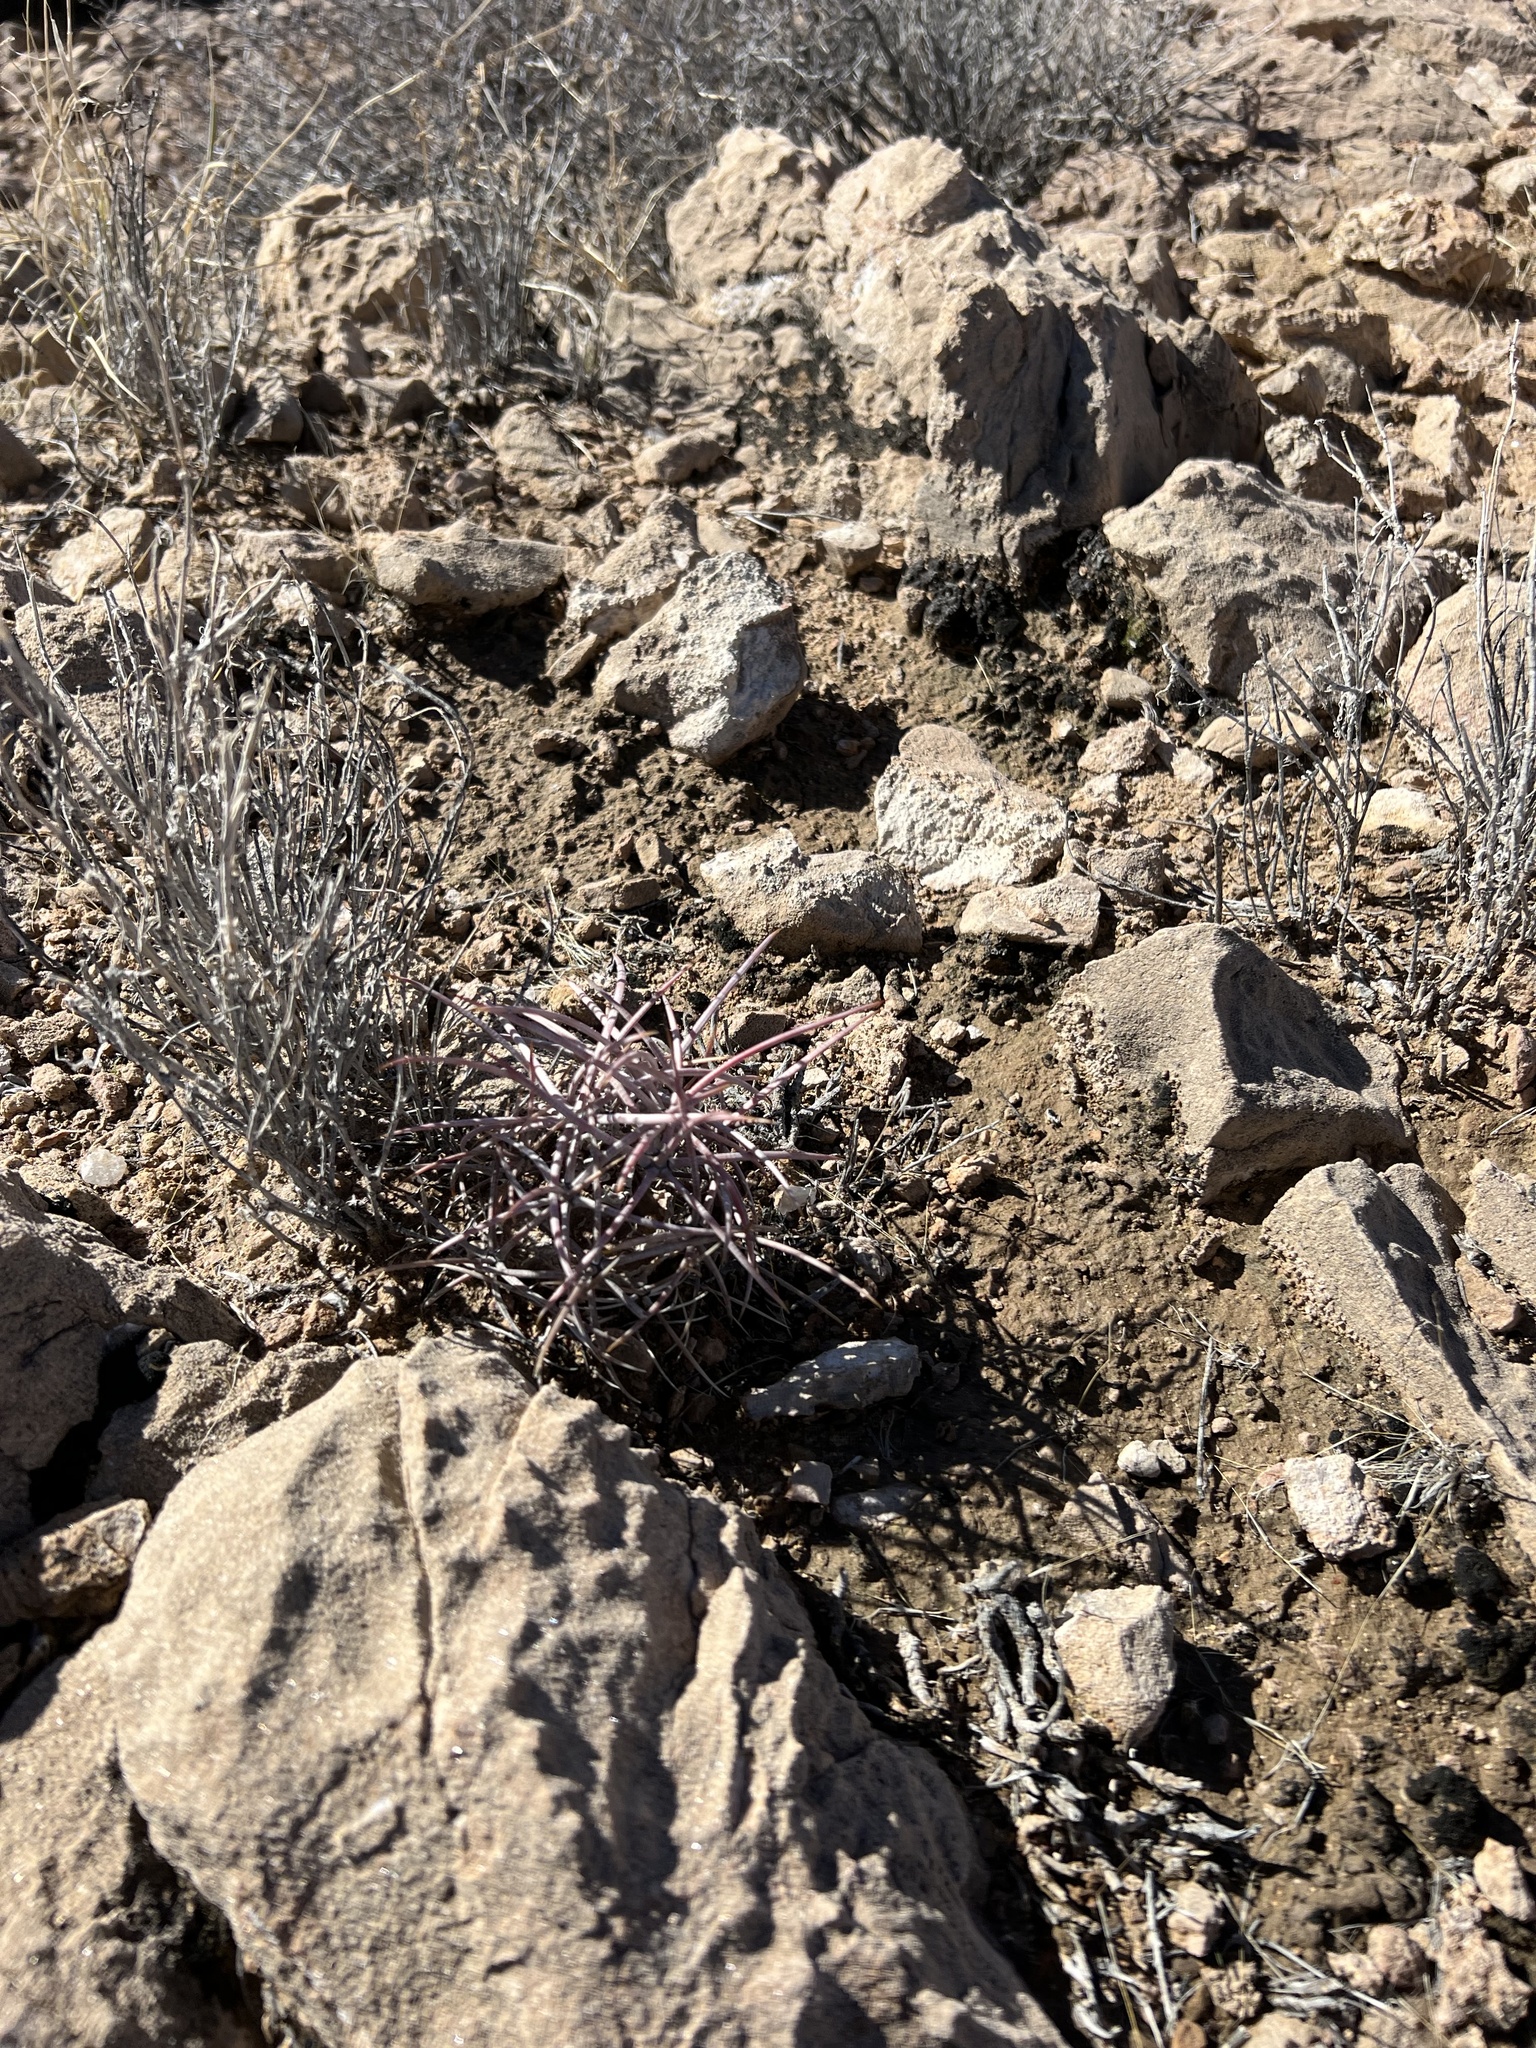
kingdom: Plantae
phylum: Tracheophyta
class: Magnoliopsida
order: Caryophyllales
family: Cactaceae
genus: Echinocactus
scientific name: Echinocactus polycephalus
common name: Cottontop cactus
